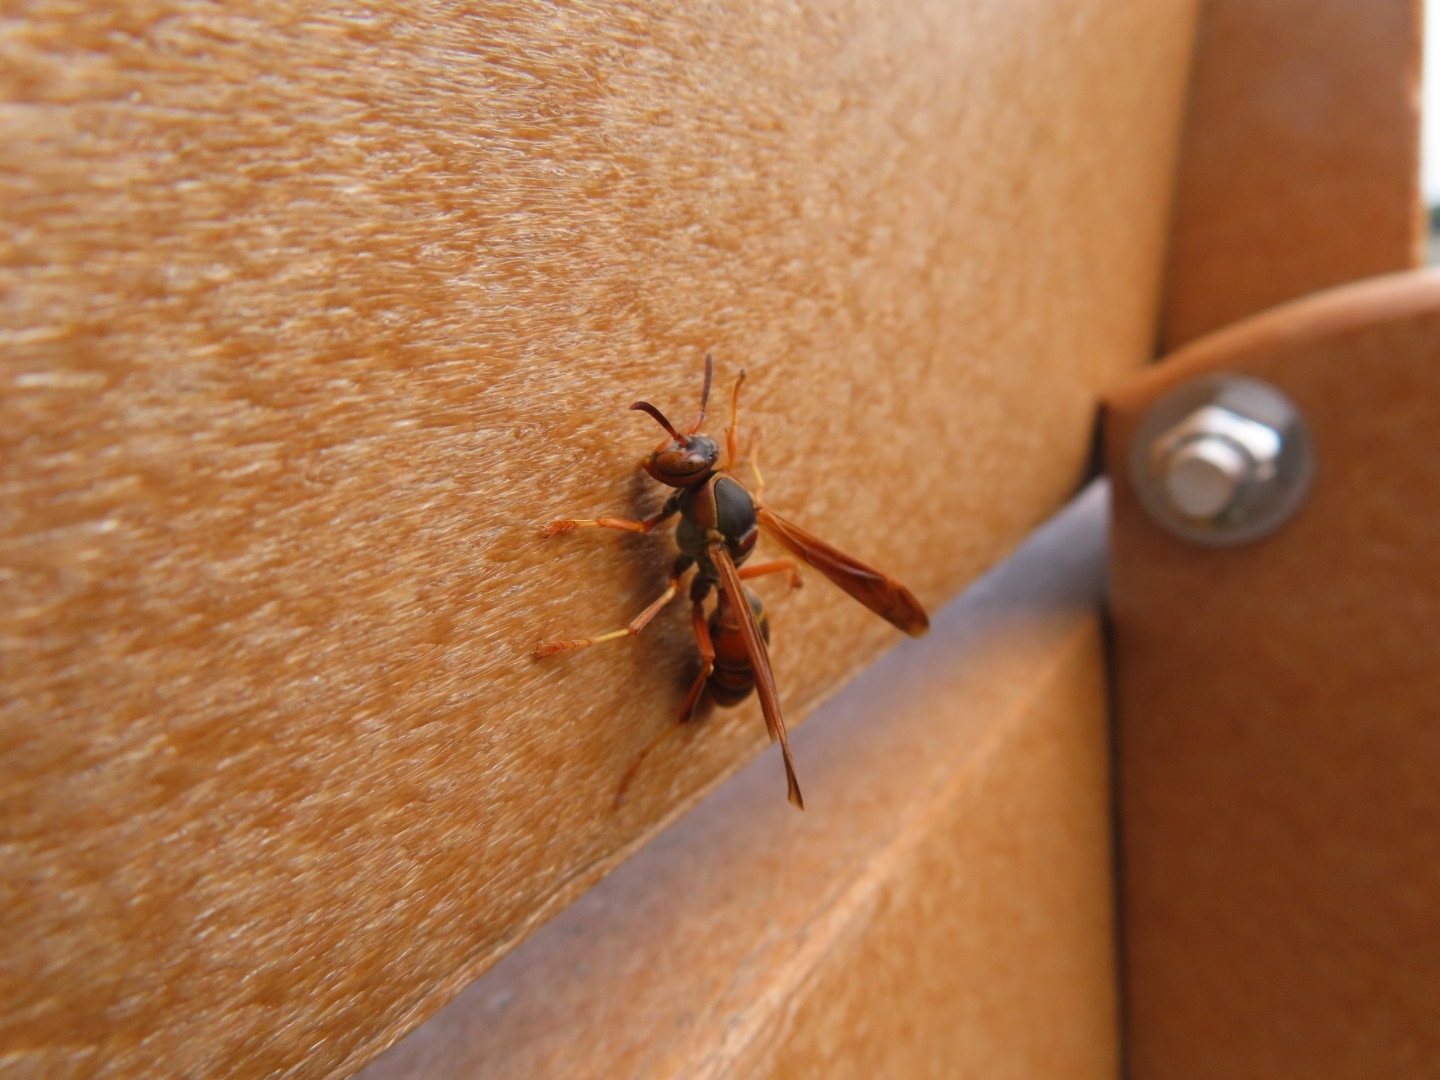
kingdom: Animalia
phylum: Arthropoda
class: Insecta
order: Hymenoptera
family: Eumenidae
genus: Polistes
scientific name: Polistes fuscatus
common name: Dark paper wasp
